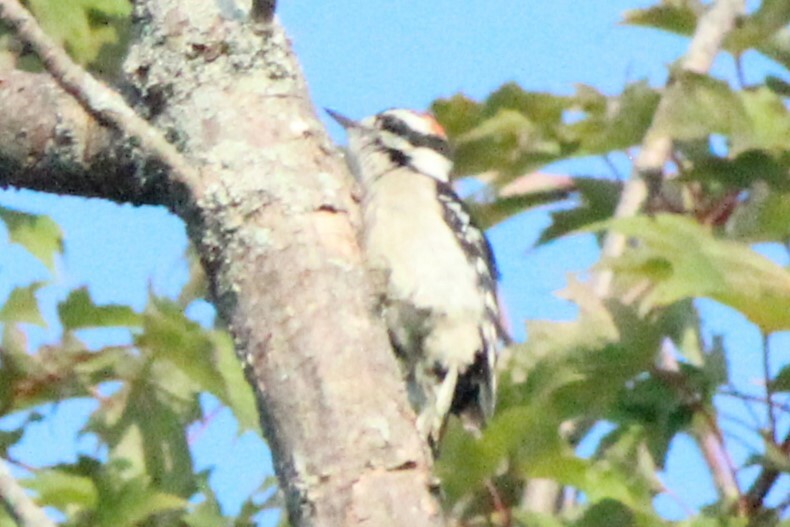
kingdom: Animalia
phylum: Chordata
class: Aves
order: Piciformes
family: Picidae
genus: Dryobates
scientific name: Dryobates pubescens
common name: Downy woodpecker
